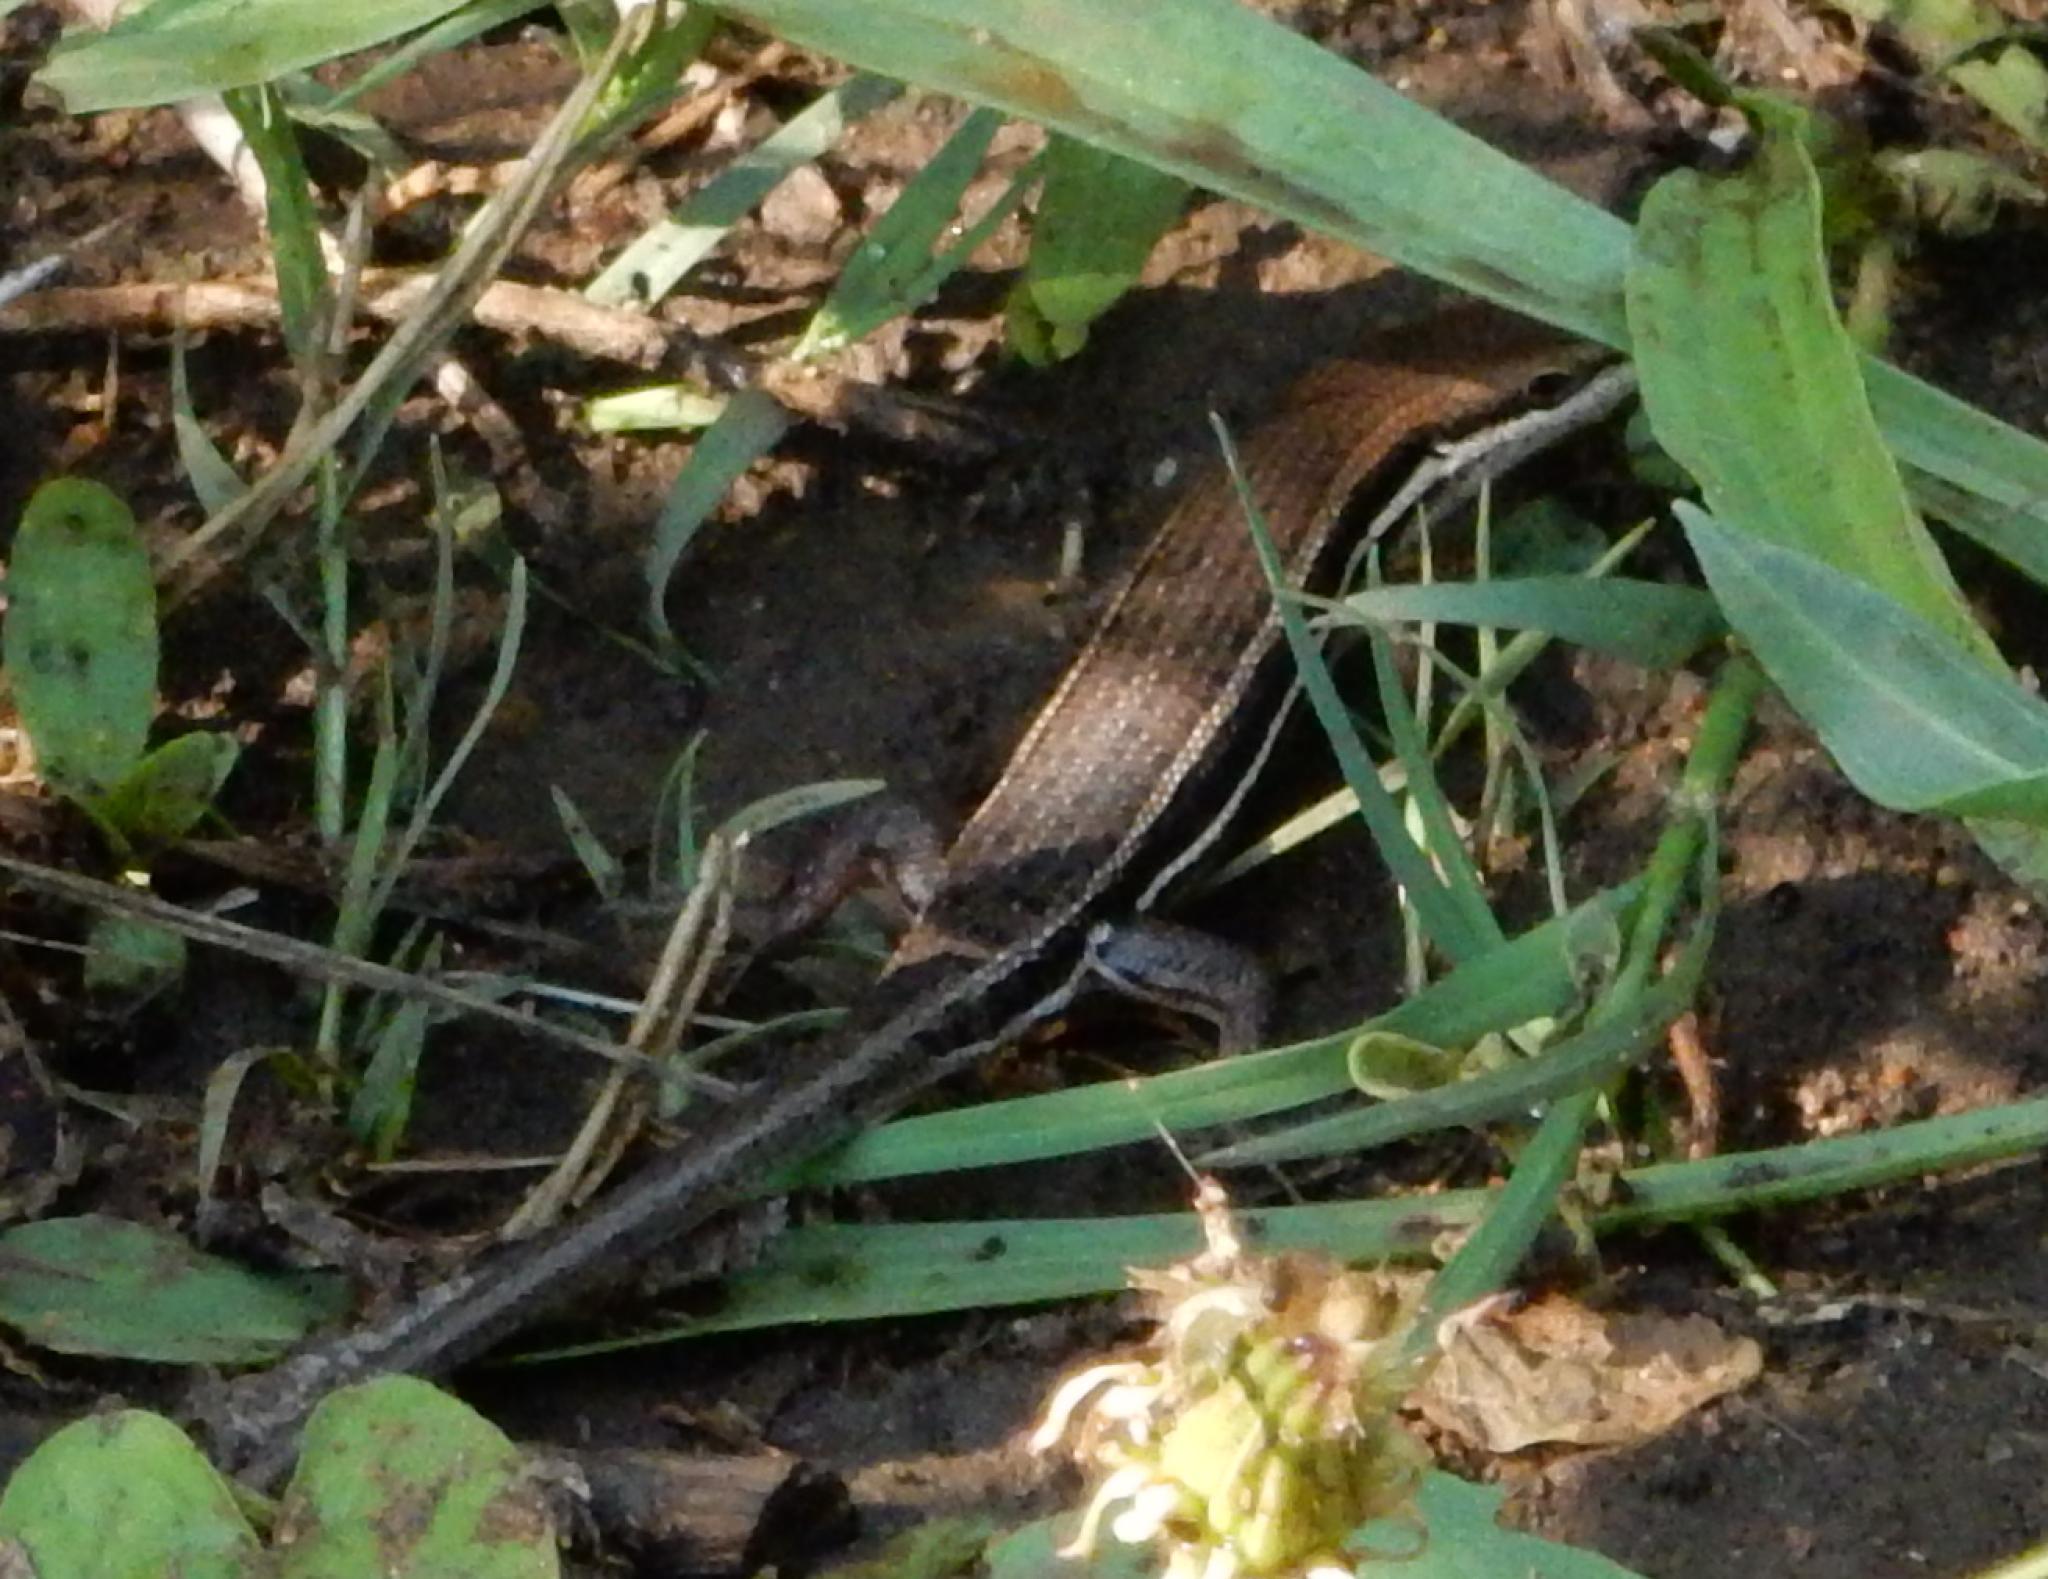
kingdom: Animalia
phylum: Chordata
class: Squamata
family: Scincidae
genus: Trachylepis
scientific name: Trachylepis varia
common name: Eastern variable skink
